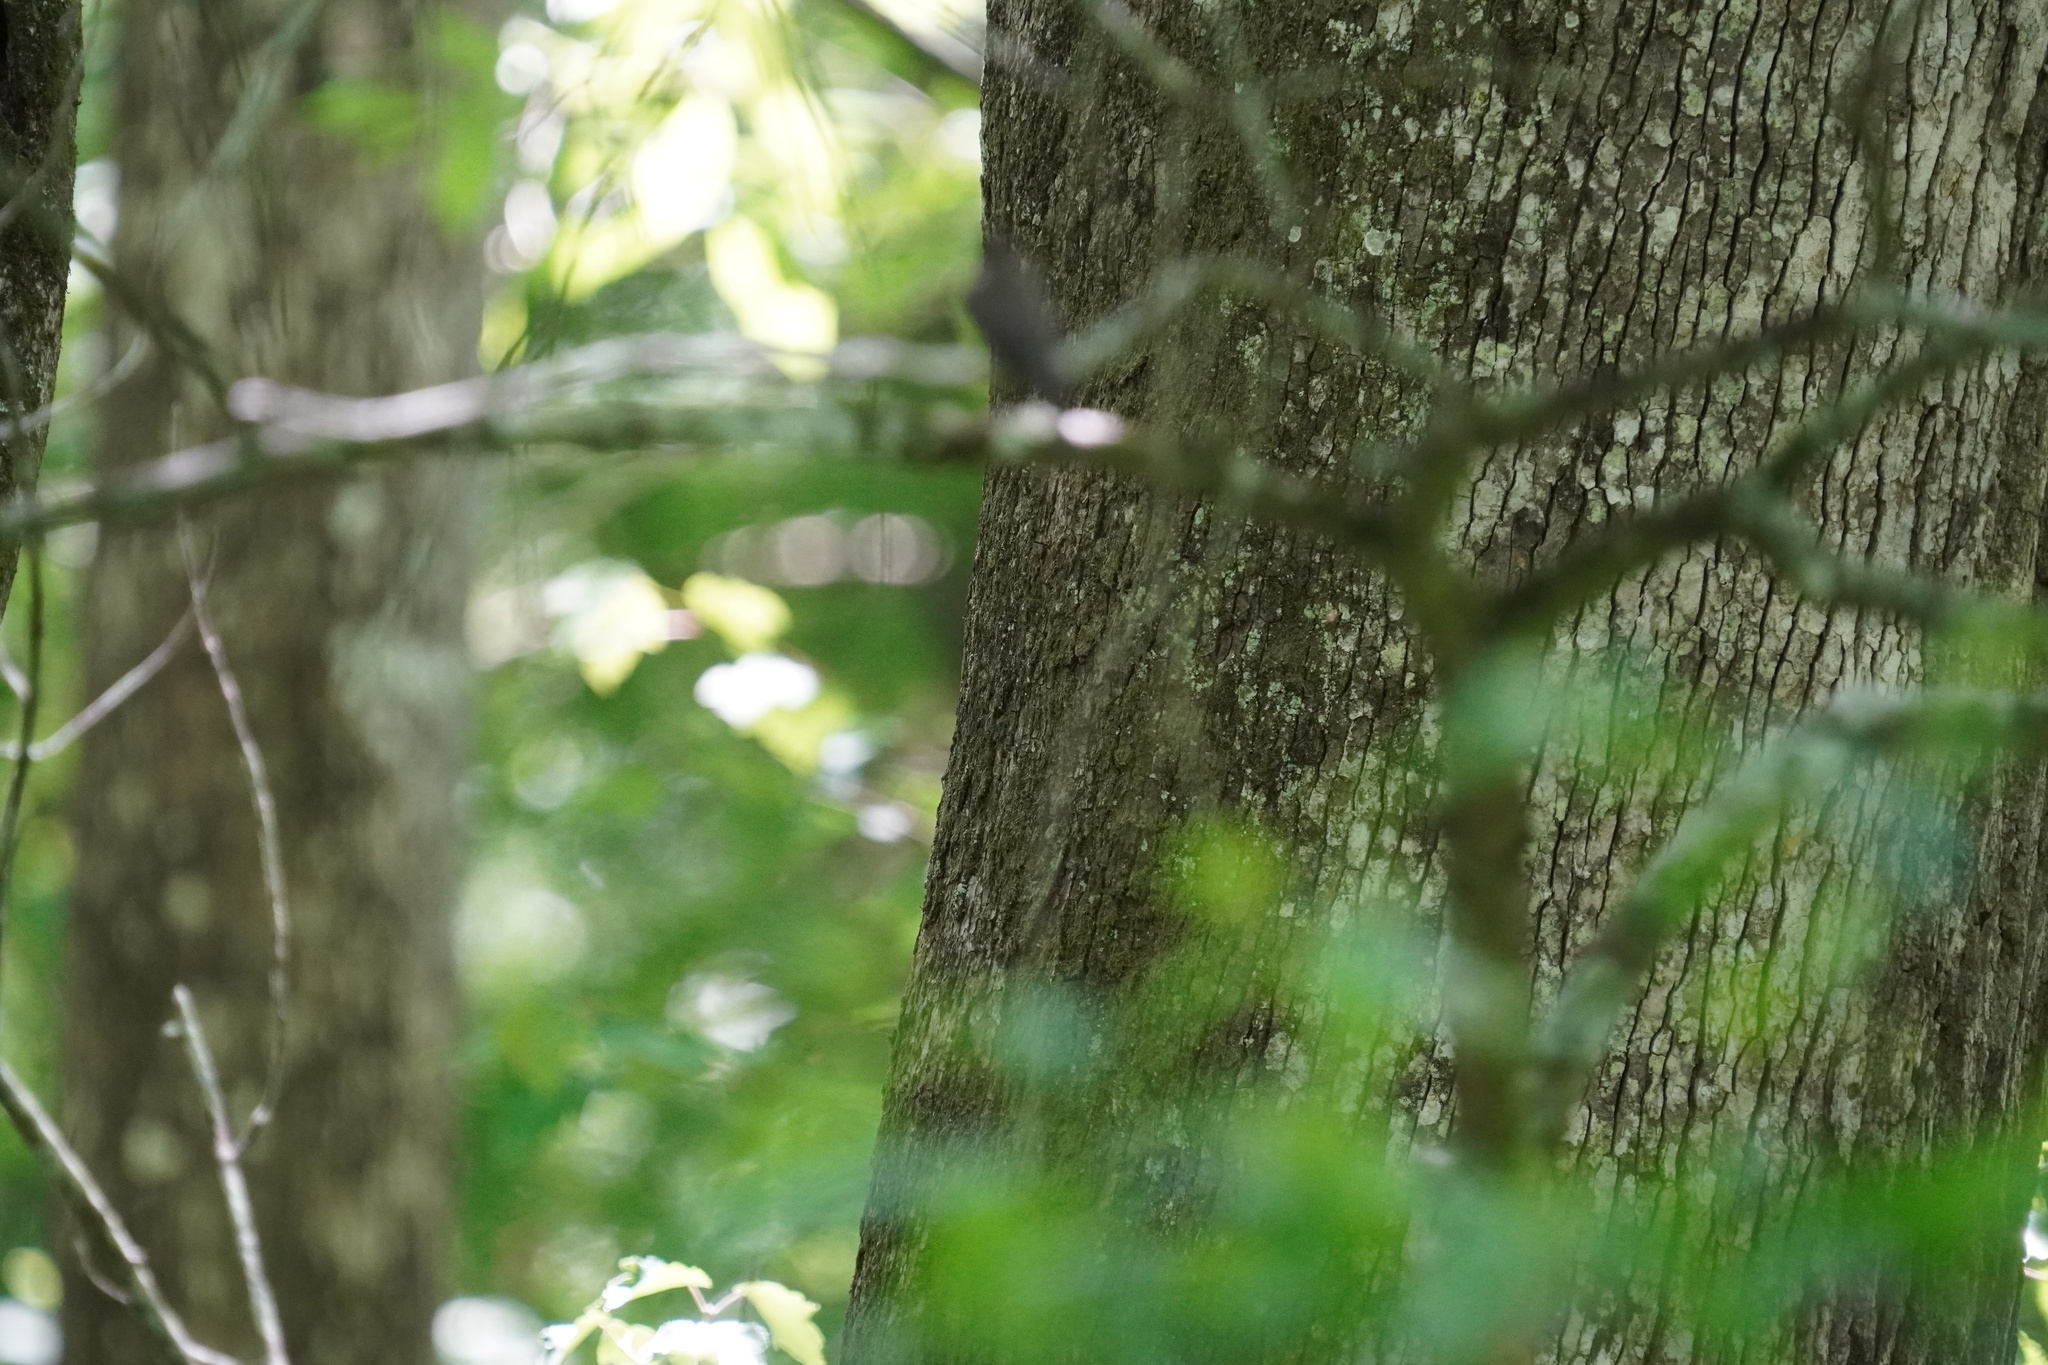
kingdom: Animalia
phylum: Chordata
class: Aves
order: Passeriformes
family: Tyrannidae
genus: Contopus
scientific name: Contopus virens
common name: Eastern wood-pewee
